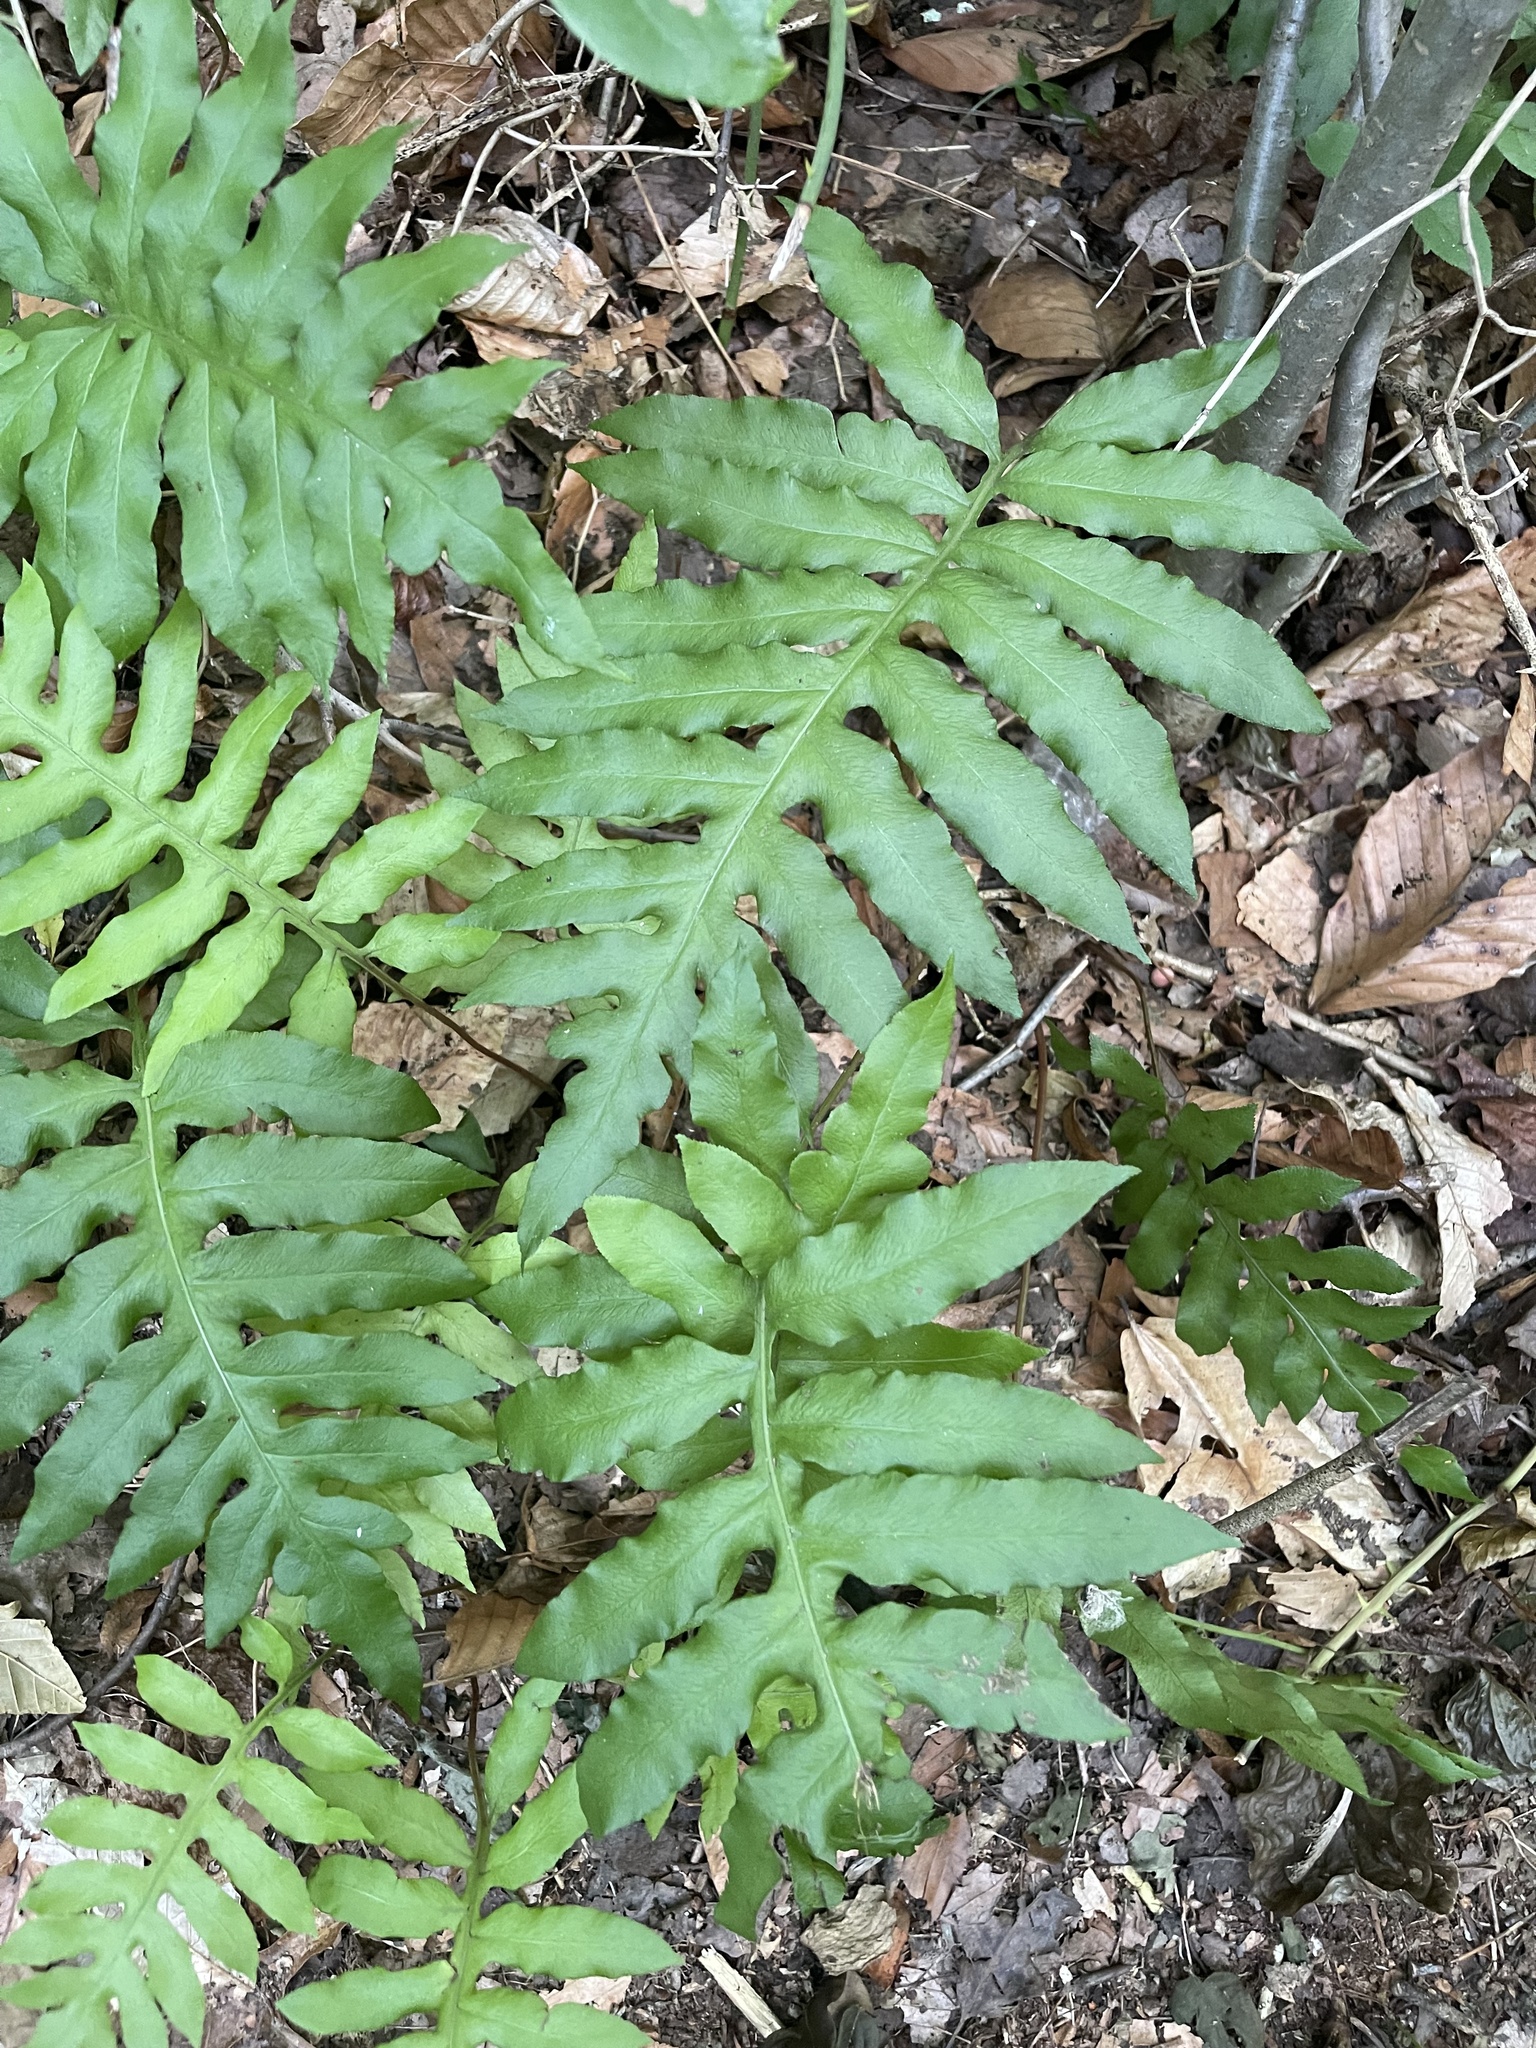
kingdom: Plantae
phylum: Tracheophyta
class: Polypodiopsida
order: Polypodiales
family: Blechnaceae
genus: Lorinseria
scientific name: Lorinseria areolata
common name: Dwarf chain fern
